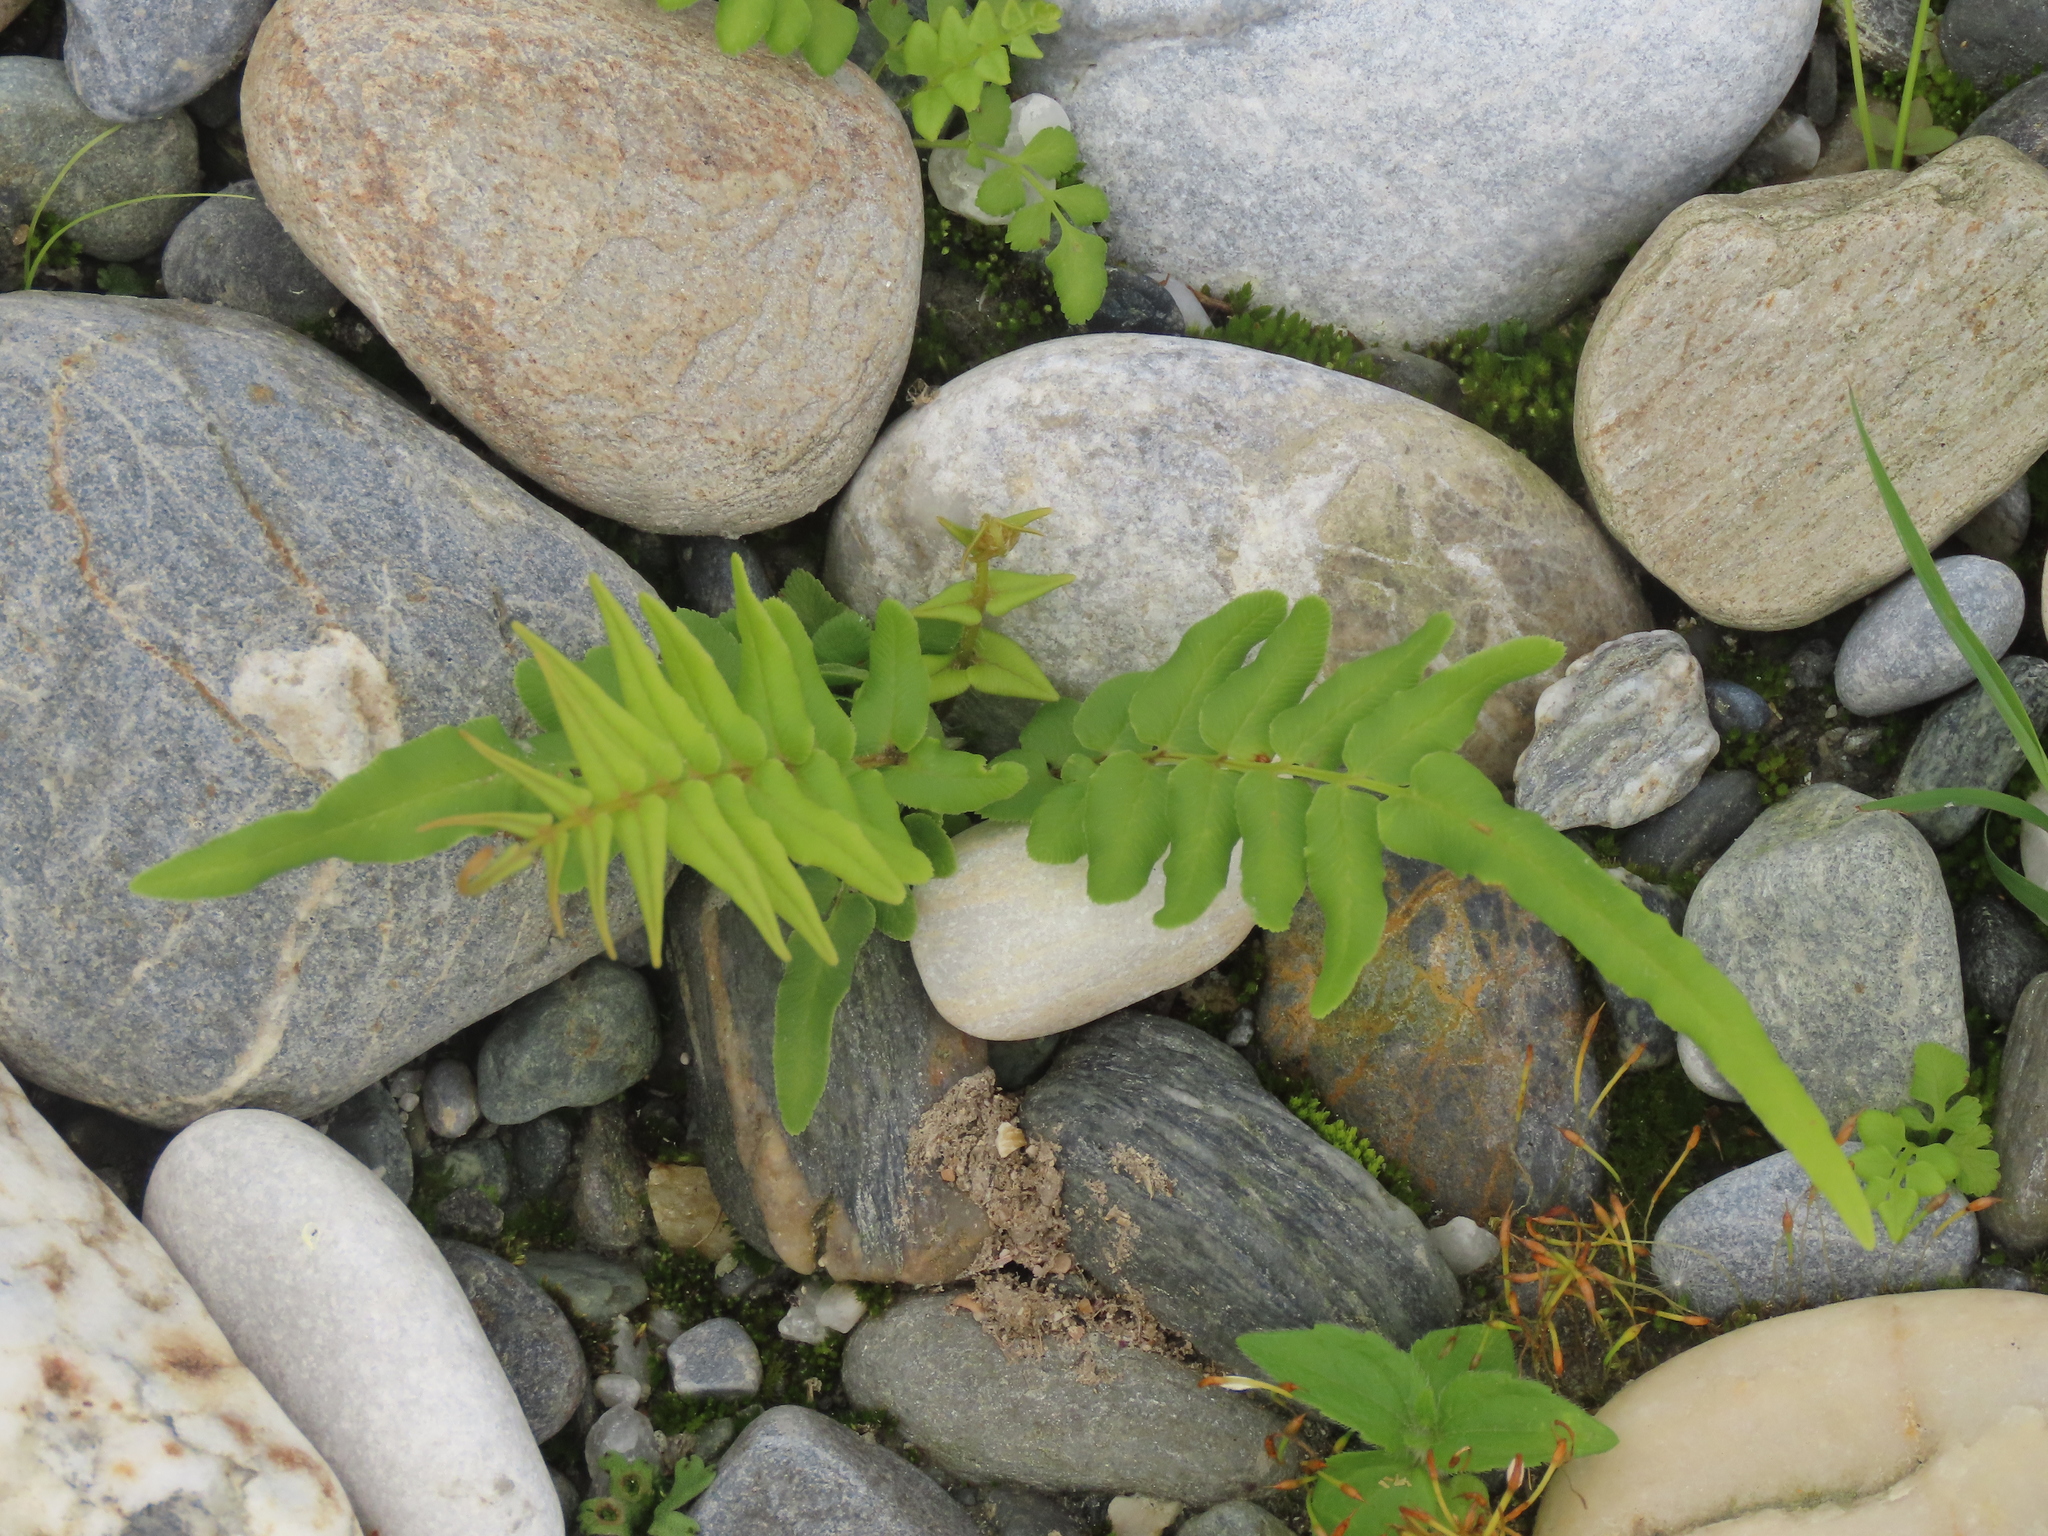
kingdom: Plantae
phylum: Tracheophyta
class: Polypodiopsida
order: Polypodiales
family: Pteridaceae
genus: Pteris
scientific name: Pteris vittata
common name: Ladder brake
